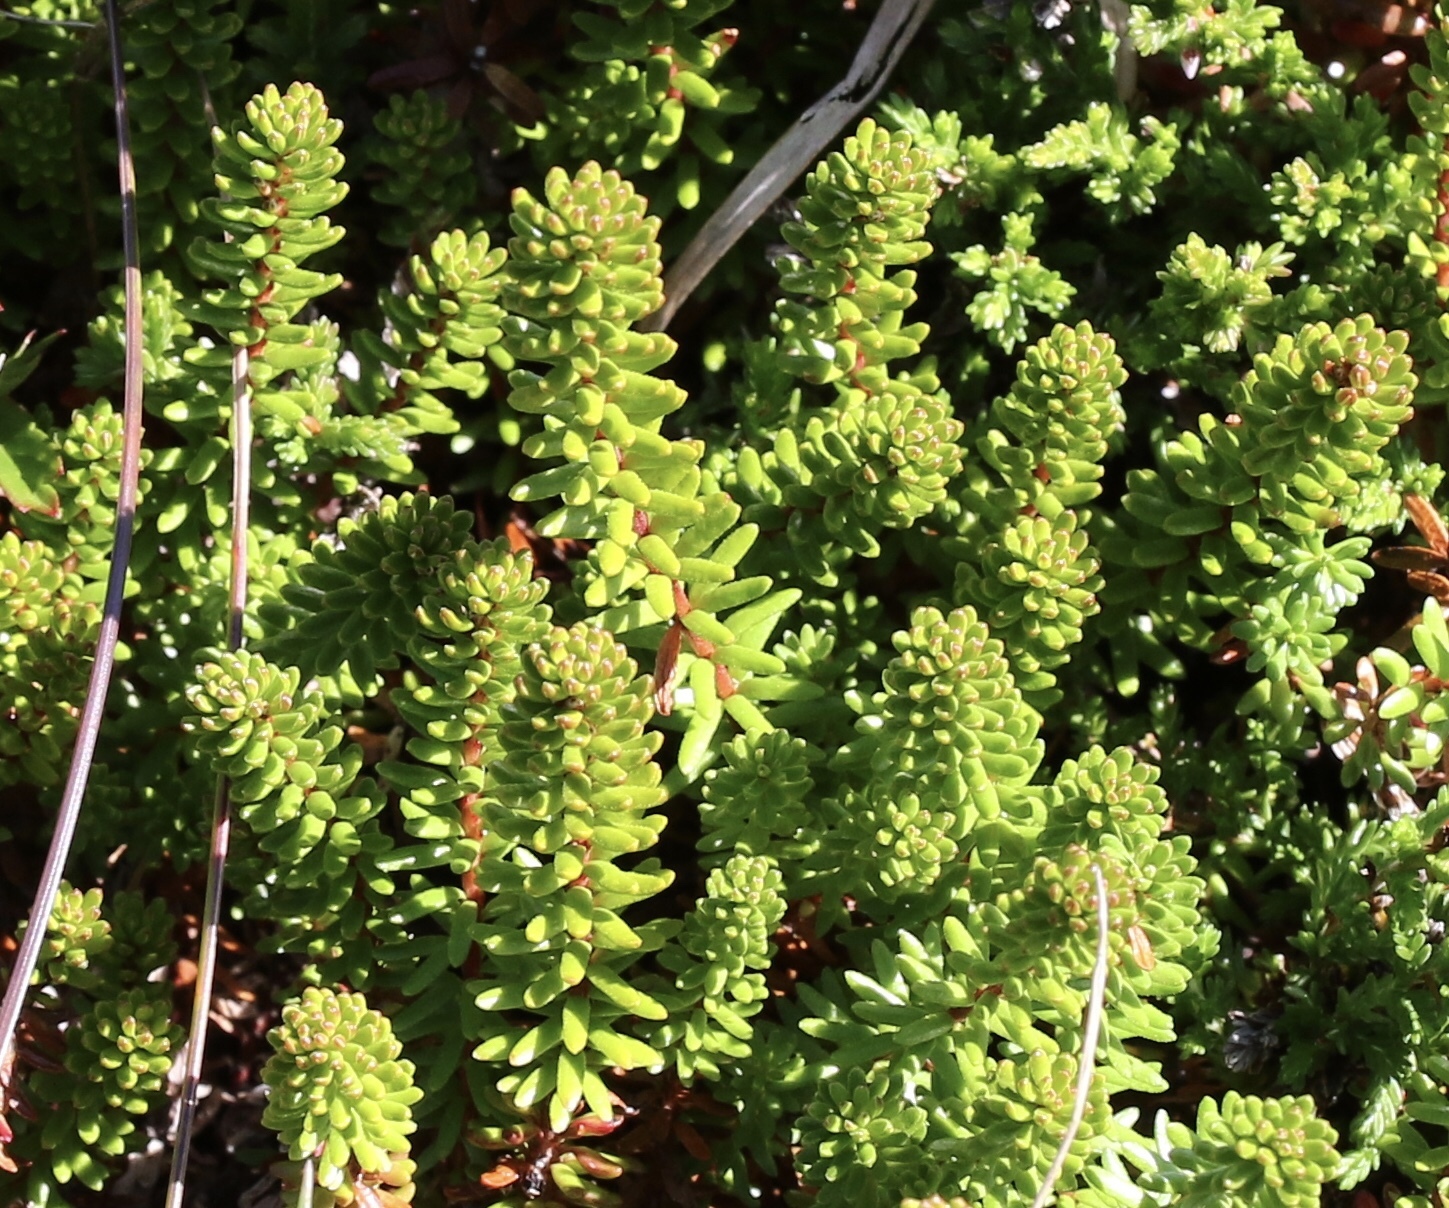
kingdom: Plantae
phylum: Tracheophyta
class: Magnoliopsida
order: Ericales
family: Ericaceae
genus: Empetrum
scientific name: Empetrum nigrum
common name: Black crowberry
